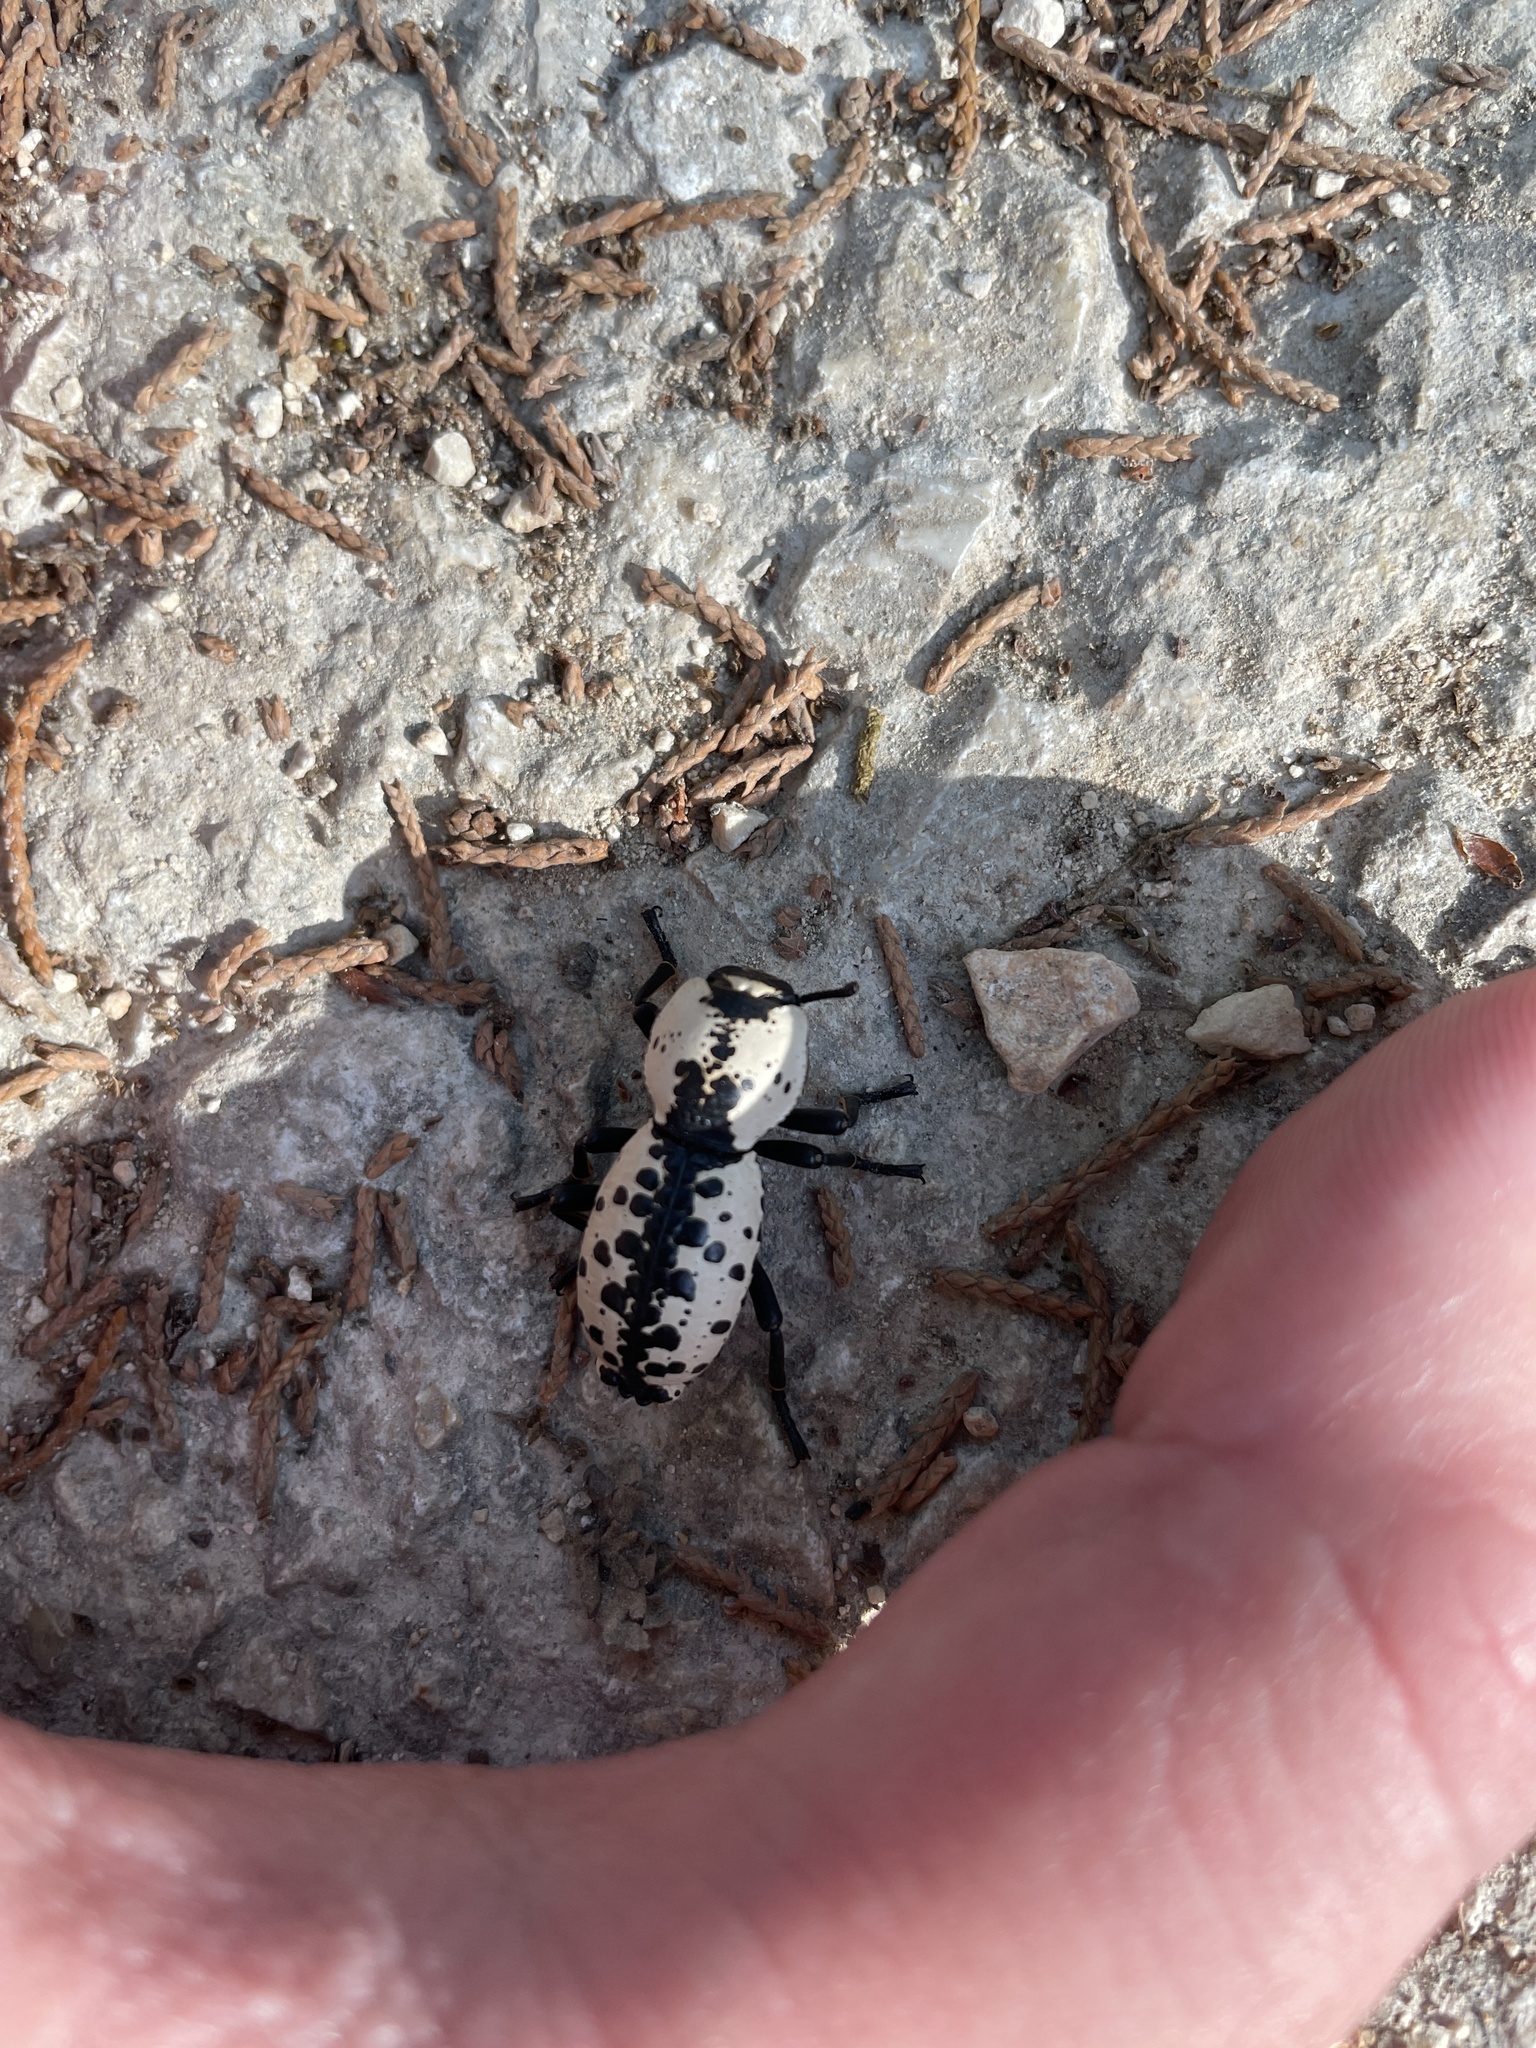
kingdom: Animalia
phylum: Arthropoda
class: Insecta
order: Coleoptera
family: Zopheridae
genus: Zopherus
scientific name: Zopherus nodulosus
